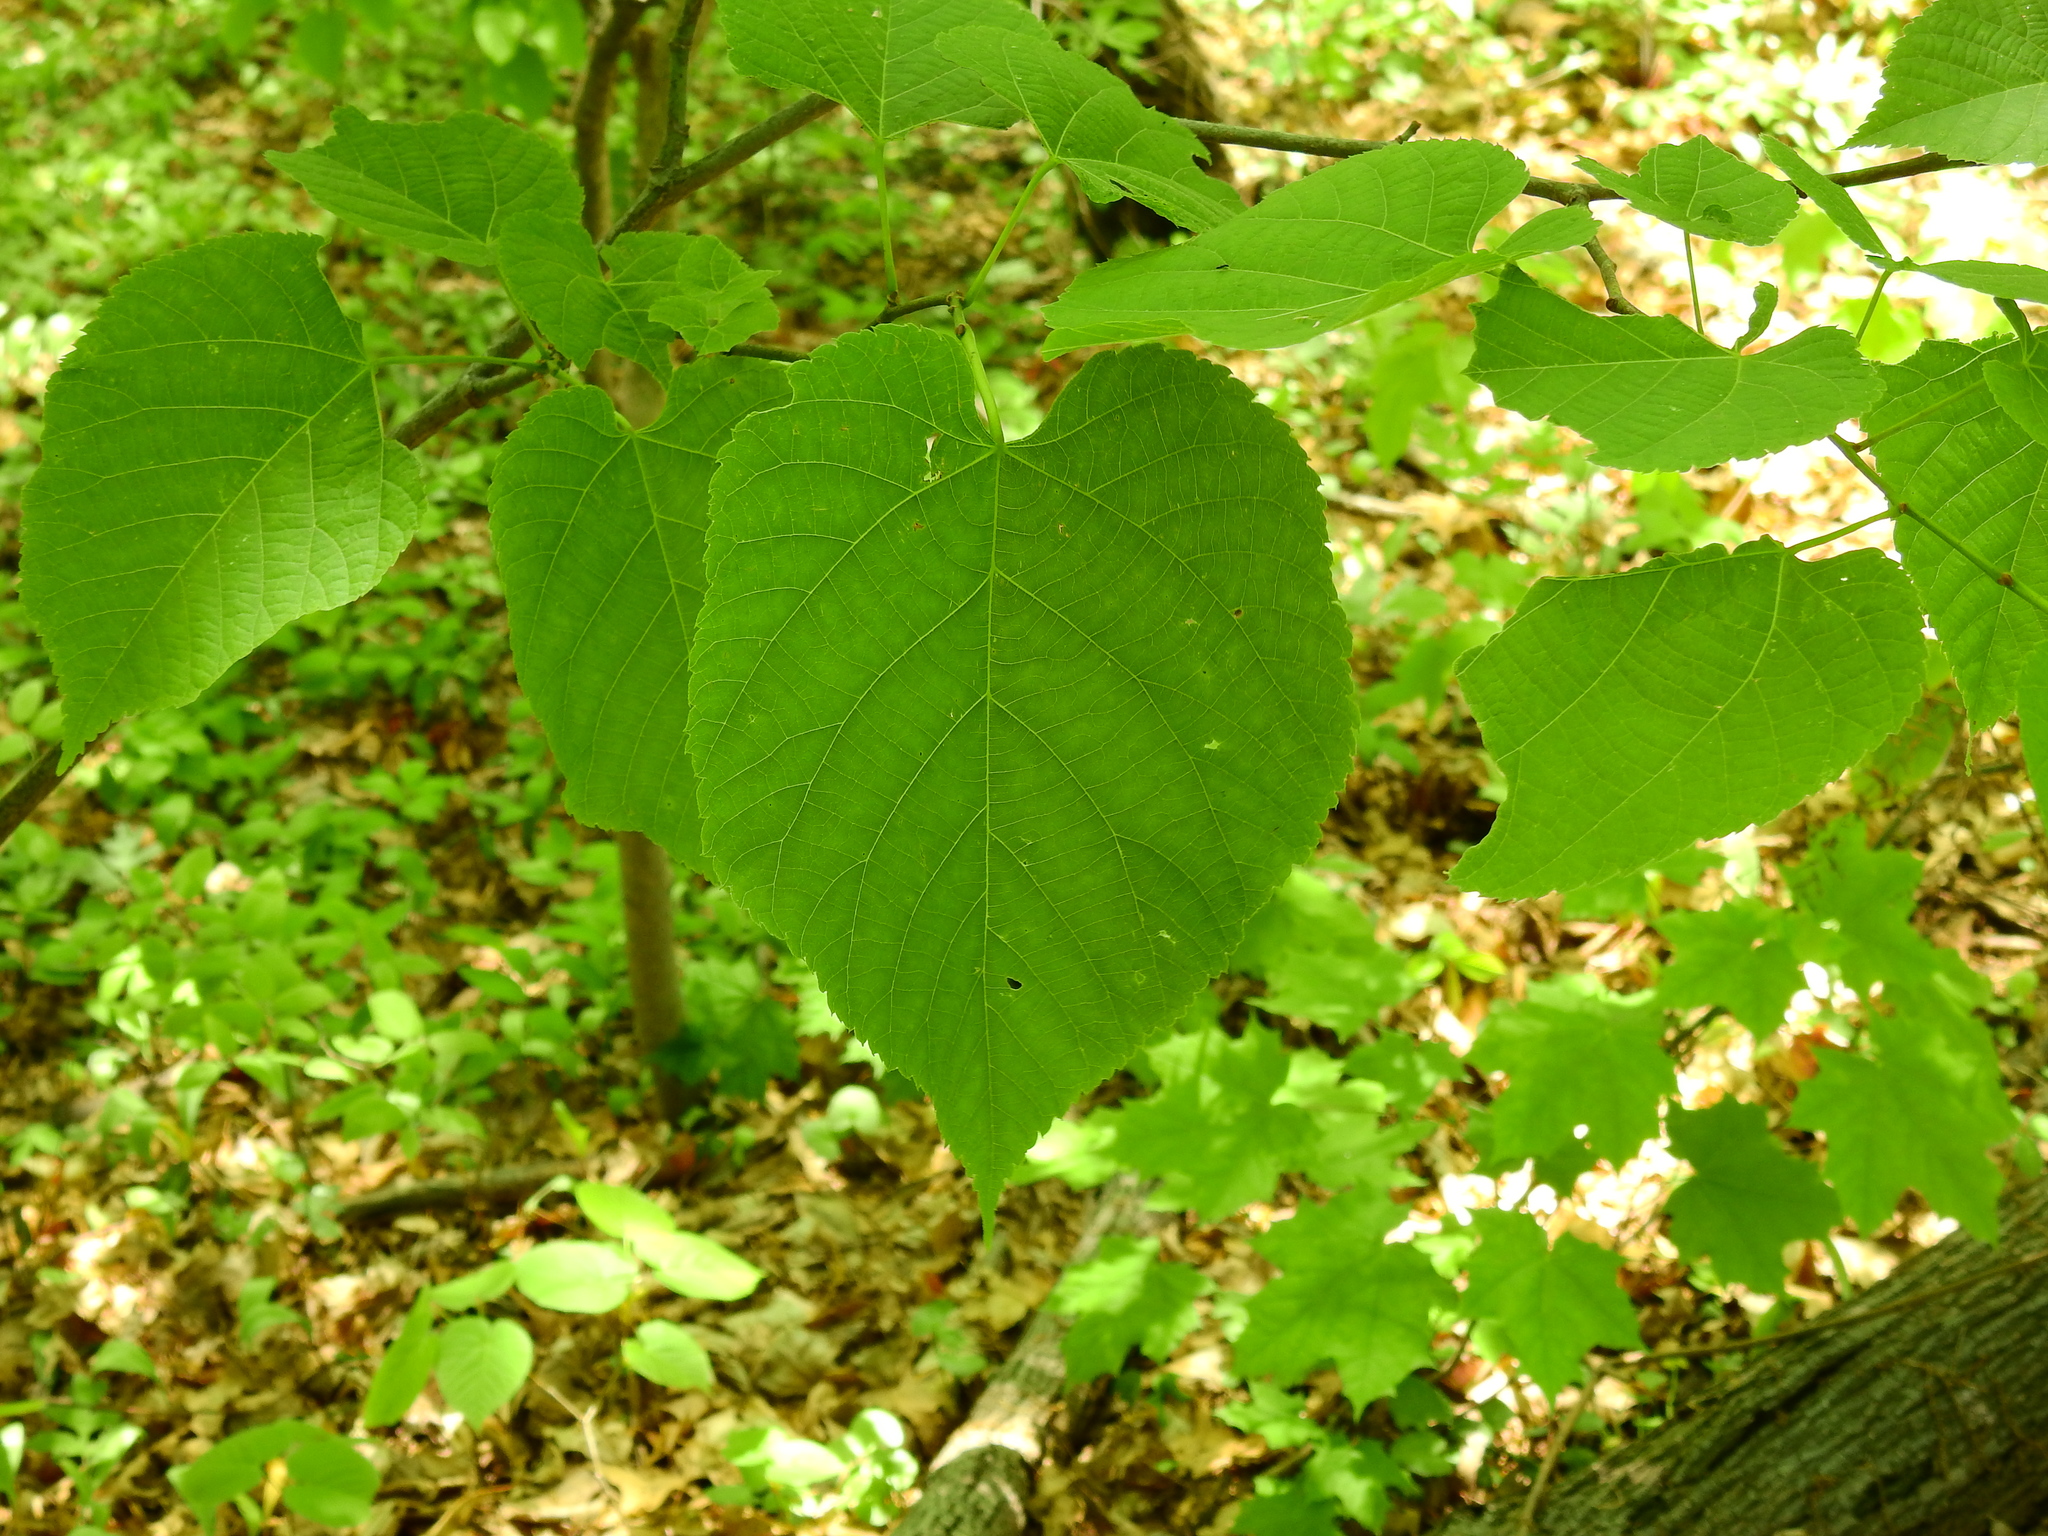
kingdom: Plantae
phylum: Tracheophyta
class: Magnoliopsida
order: Malvales
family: Malvaceae
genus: Tilia
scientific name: Tilia americana
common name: Basswood
